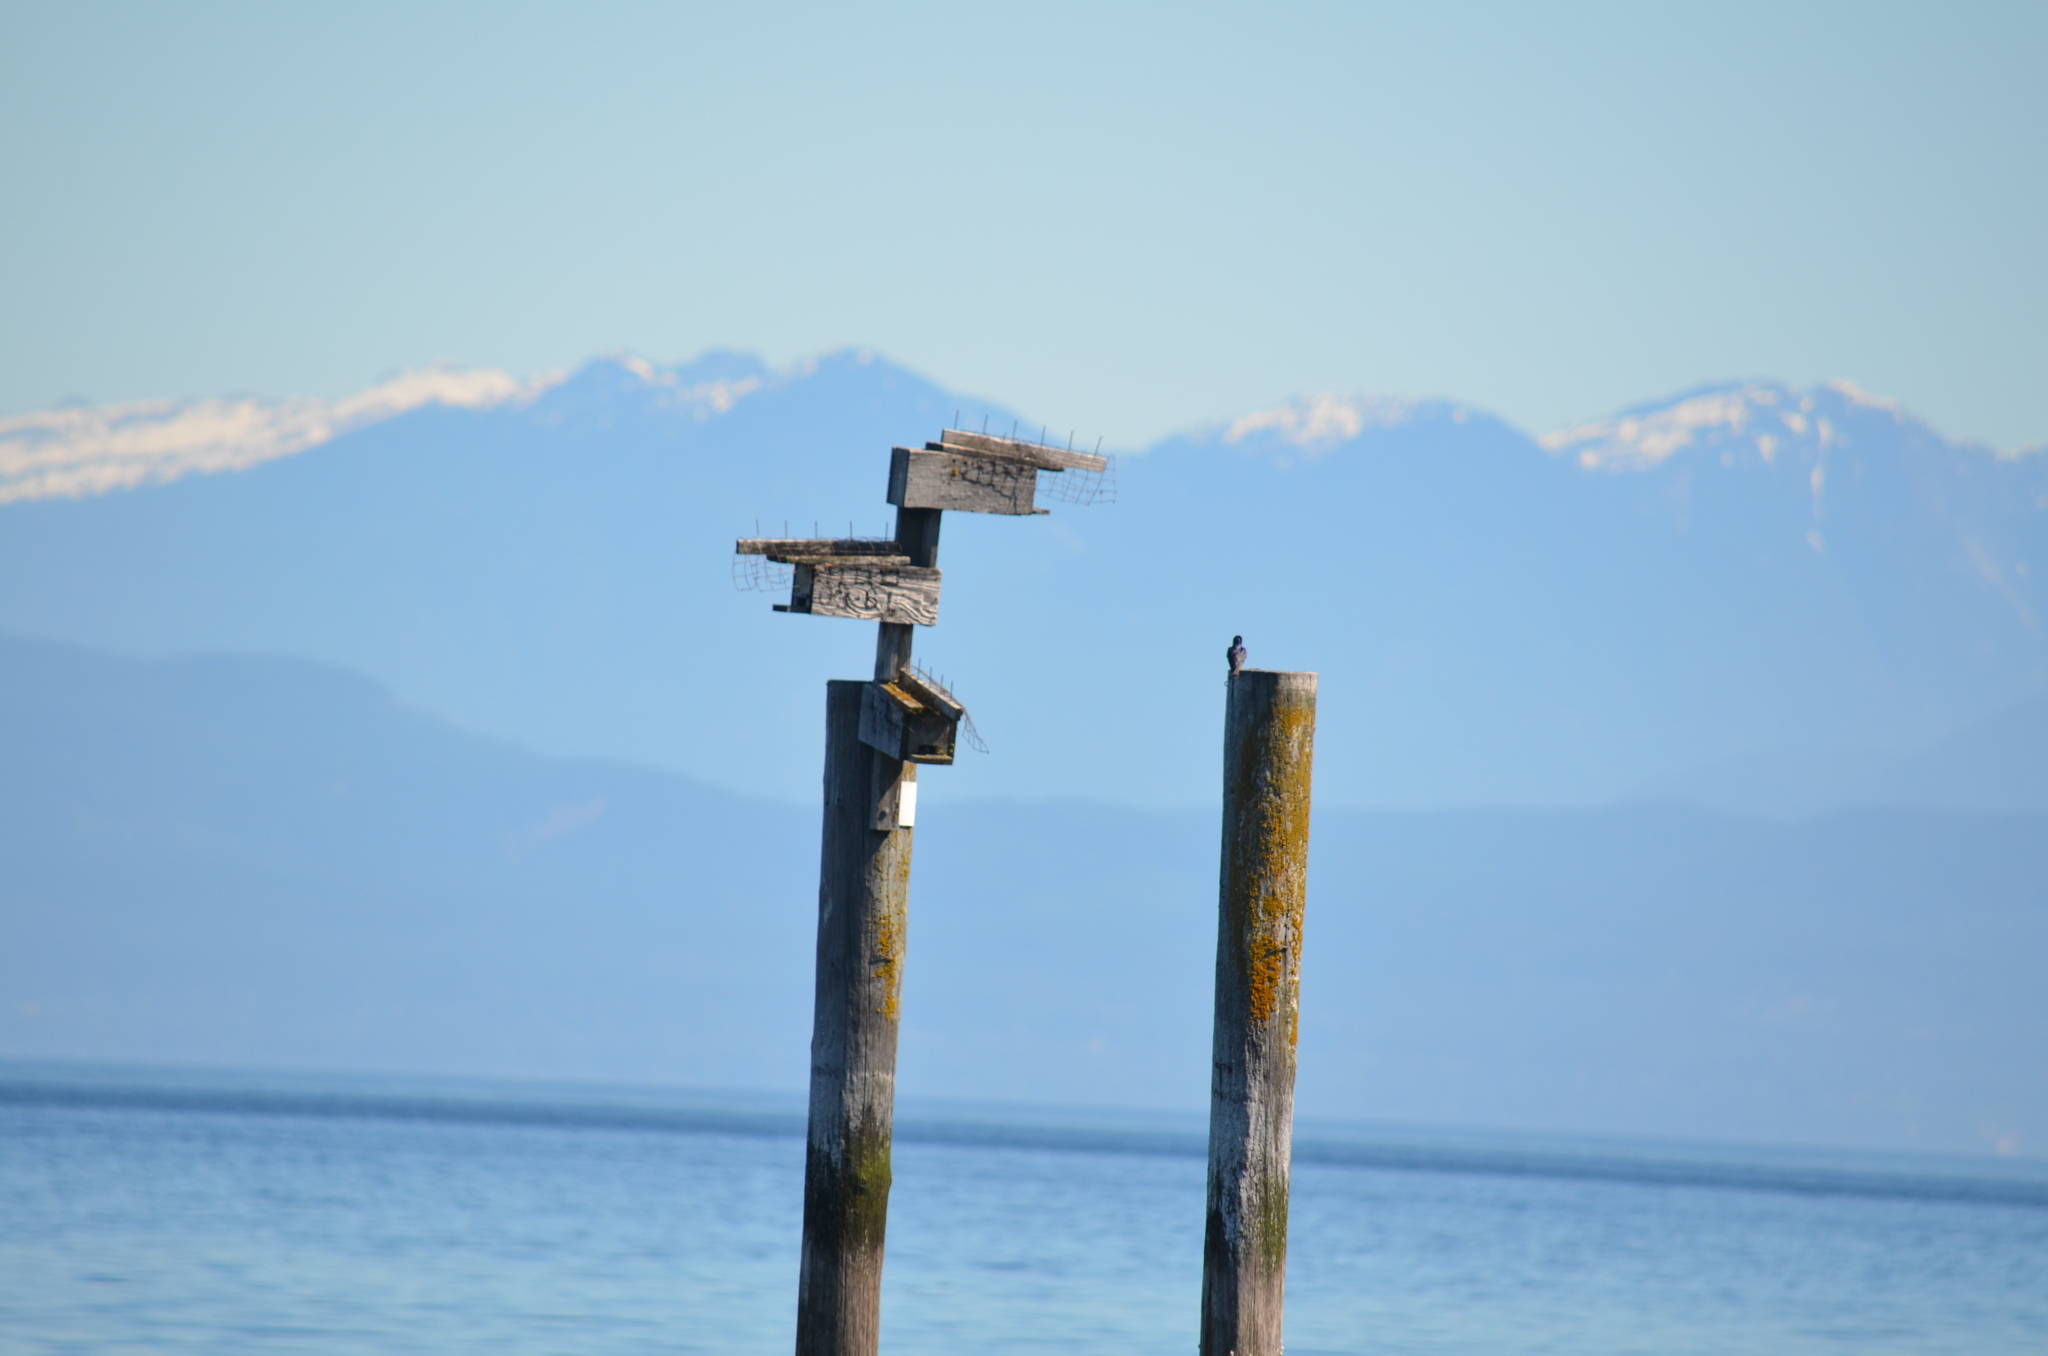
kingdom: Animalia
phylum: Chordata
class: Aves
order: Passeriformes
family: Hirundinidae
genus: Progne
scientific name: Progne subis
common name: Purple martin
